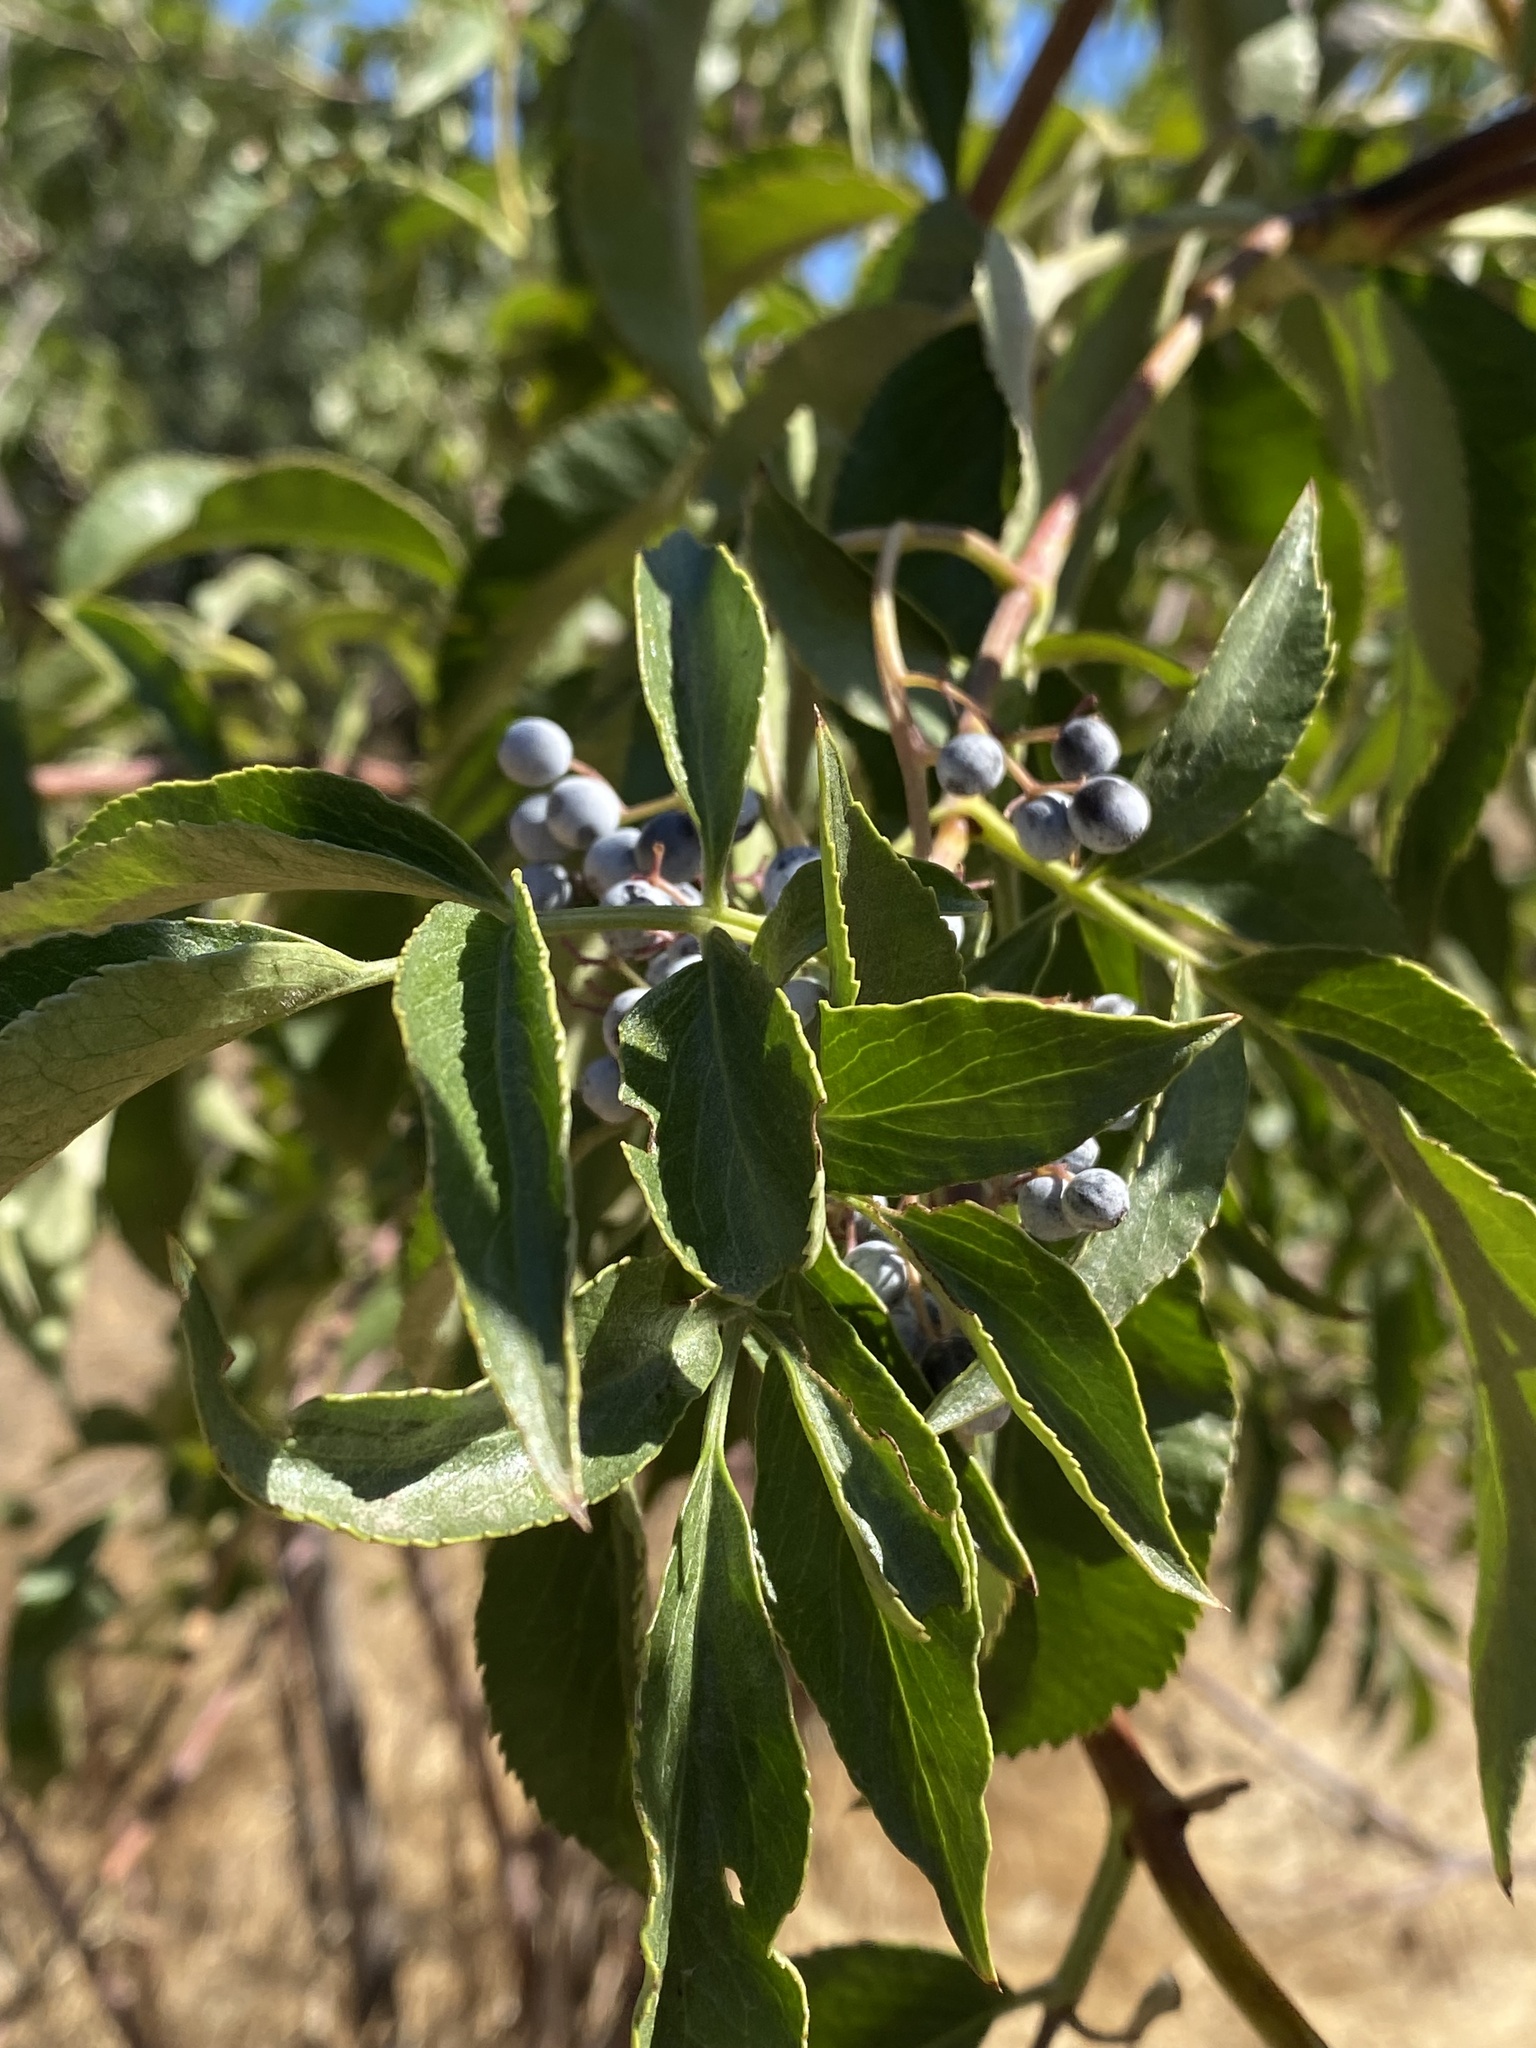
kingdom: Plantae
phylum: Tracheophyta
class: Magnoliopsida
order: Dipsacales
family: Viburnaceae
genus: Sambucus
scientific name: Sambucus cerulea
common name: Blue elder
